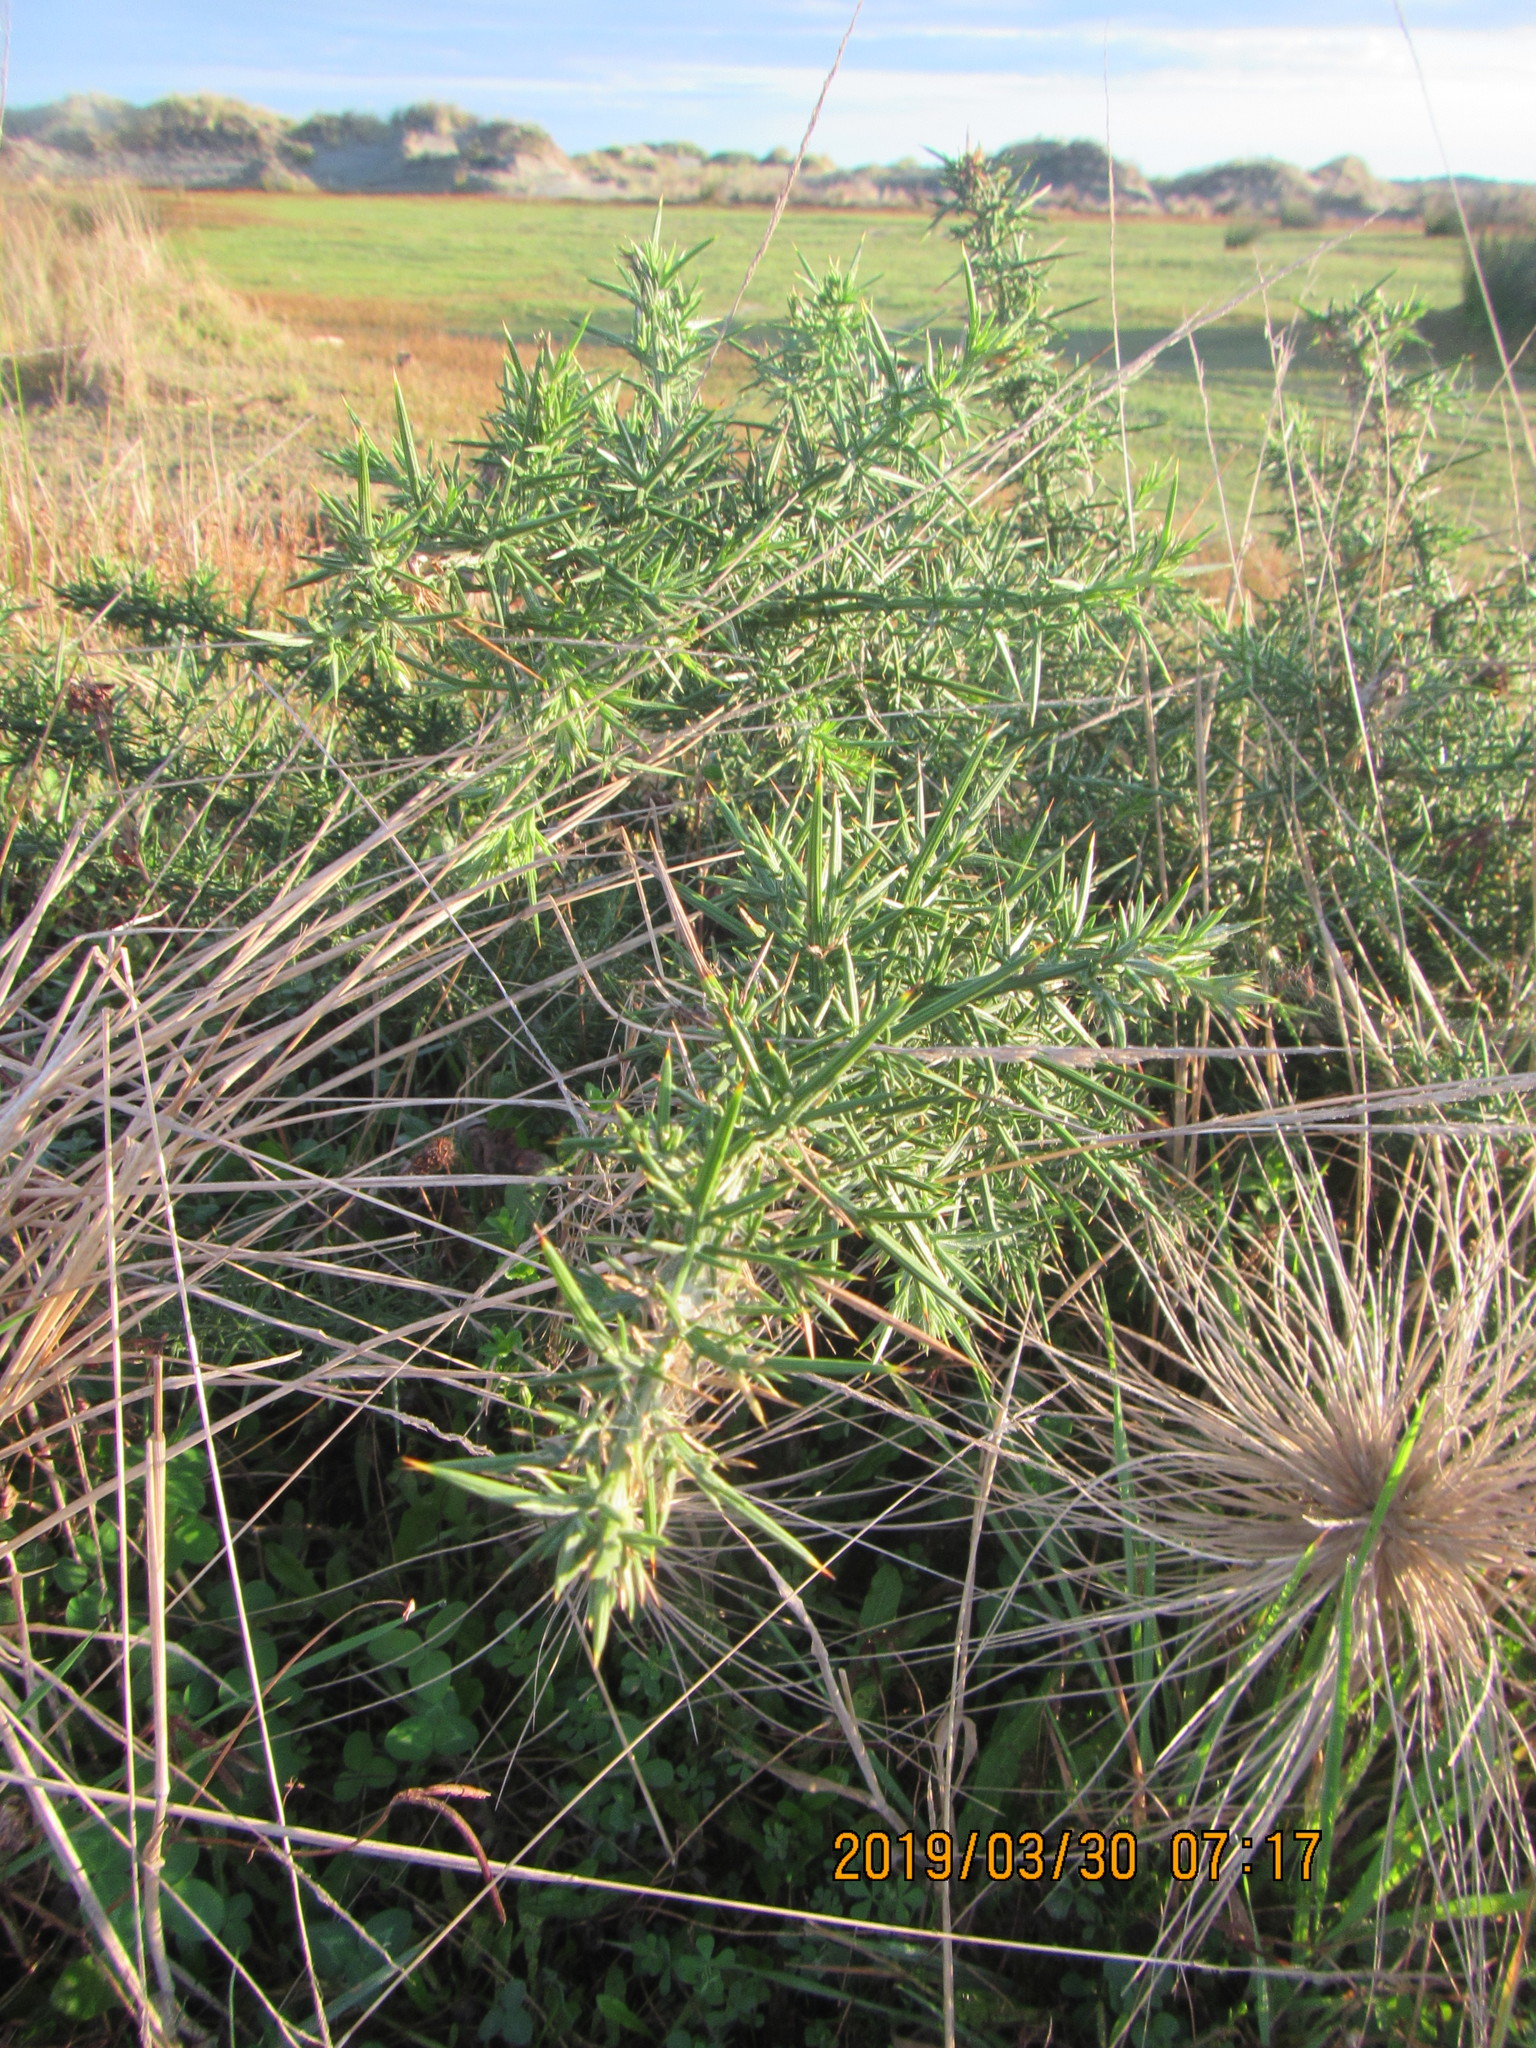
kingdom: Plantae
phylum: Tracheophyta
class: Magnoliopsida
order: Fabales
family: Fabaceae
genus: Ulex
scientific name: Ulex europaeus
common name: Common gorse
